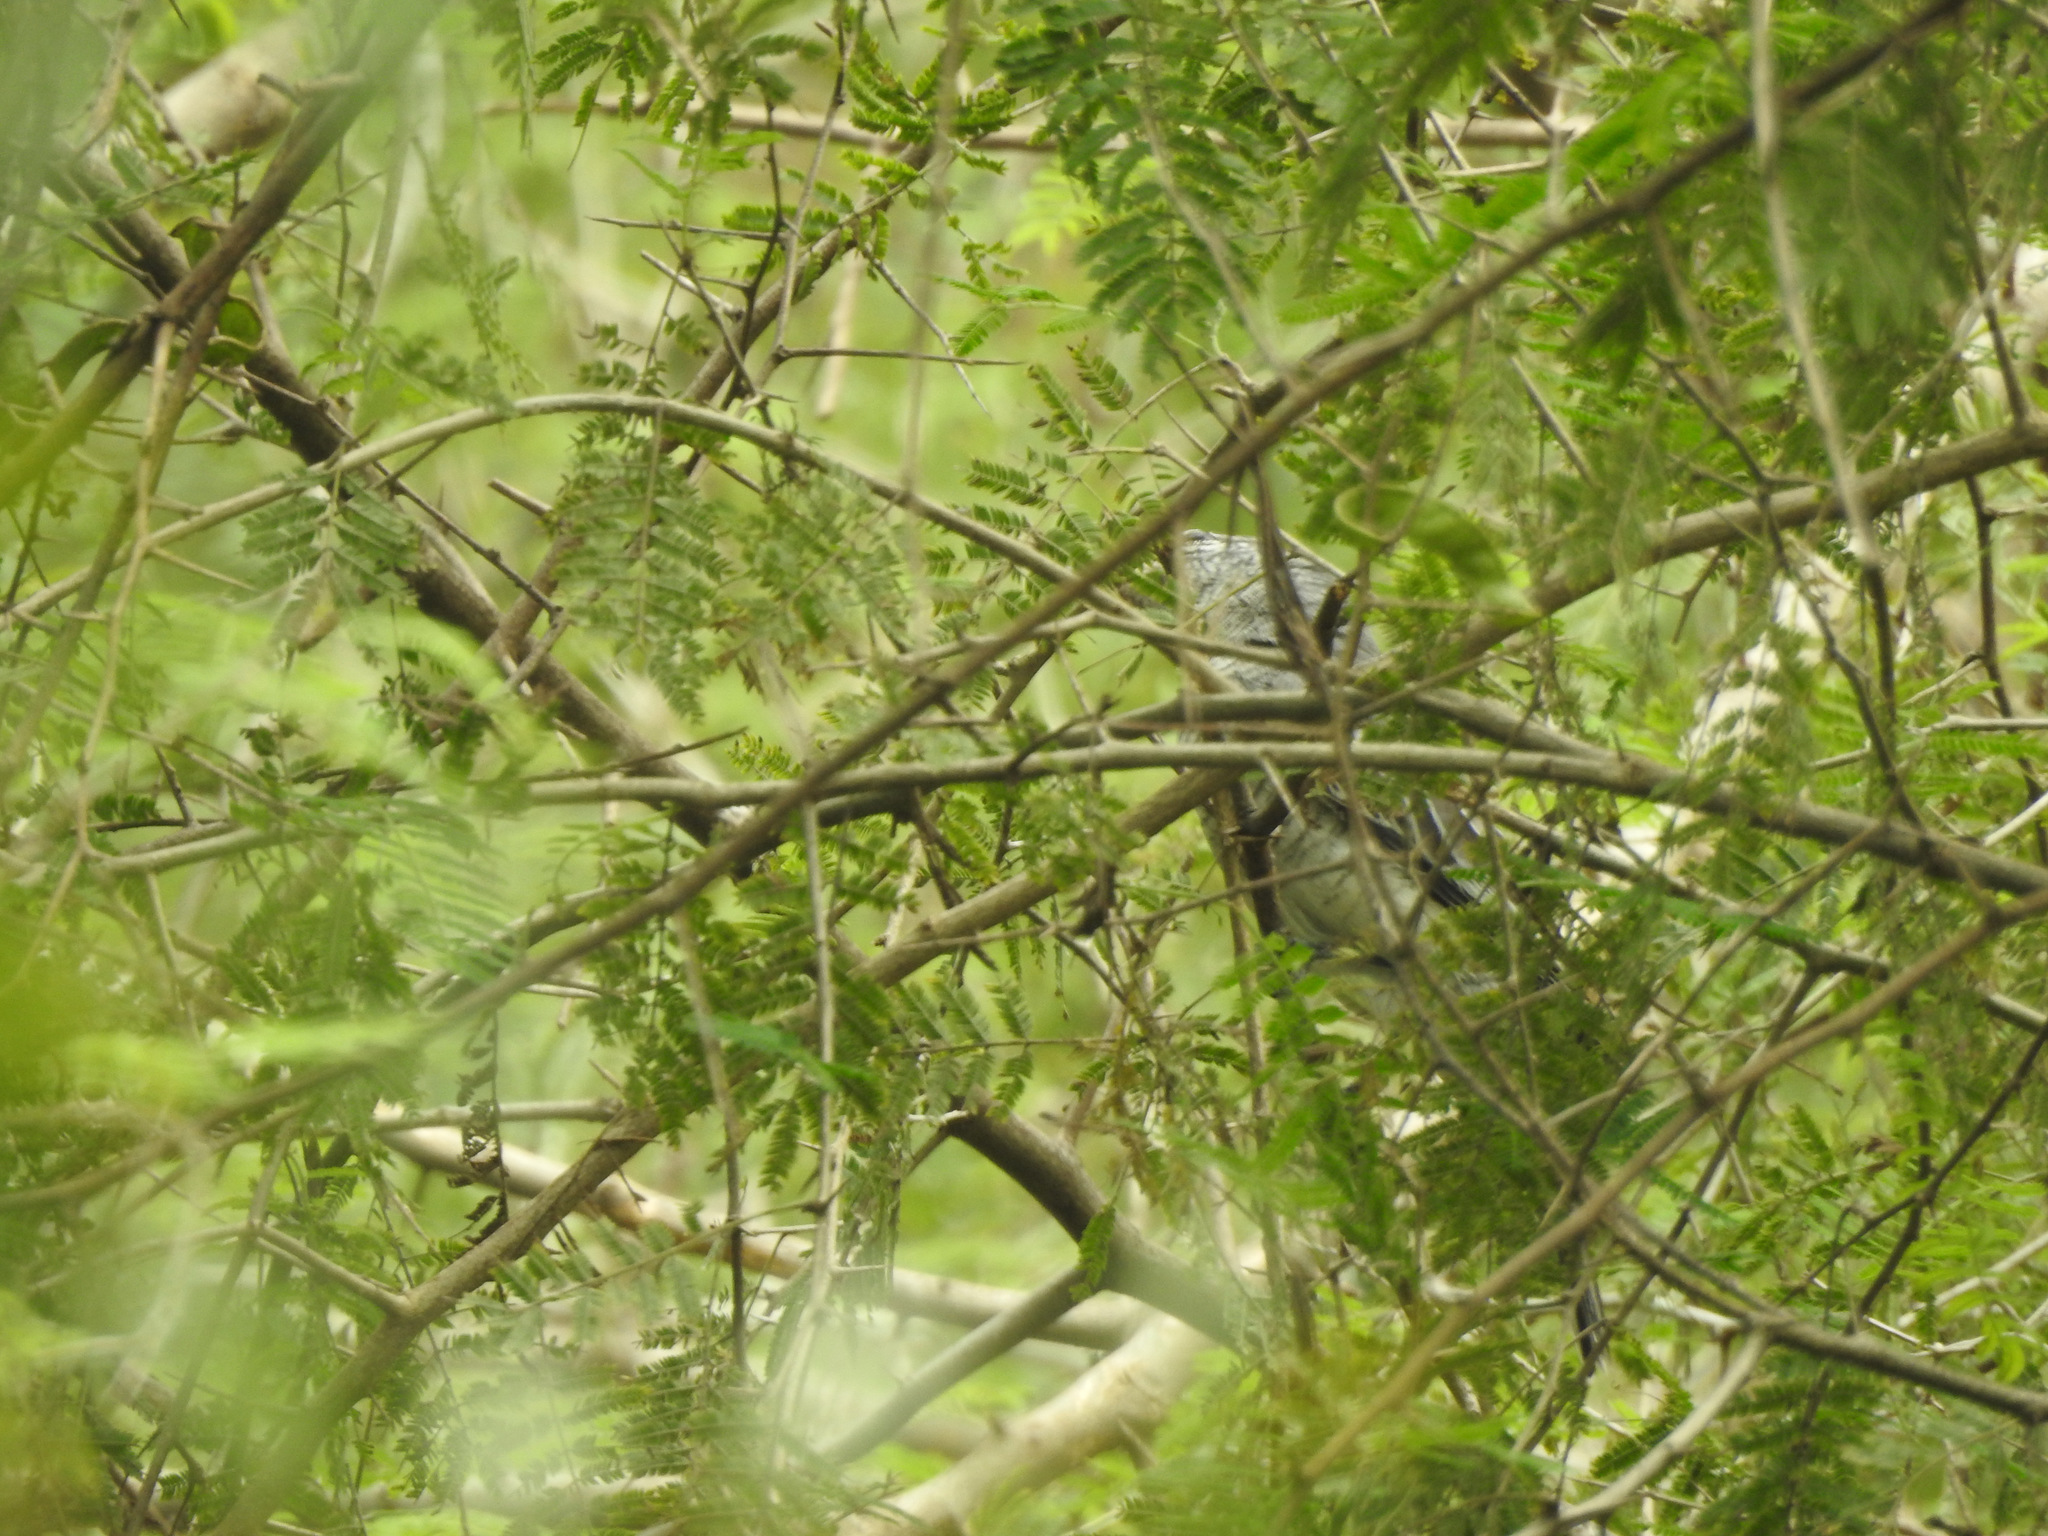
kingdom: Animalia
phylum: Chordata
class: Aves
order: Passeriformes
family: Campephagidae
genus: Coracina
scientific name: Coracina macei
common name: Large cuckooshrike
